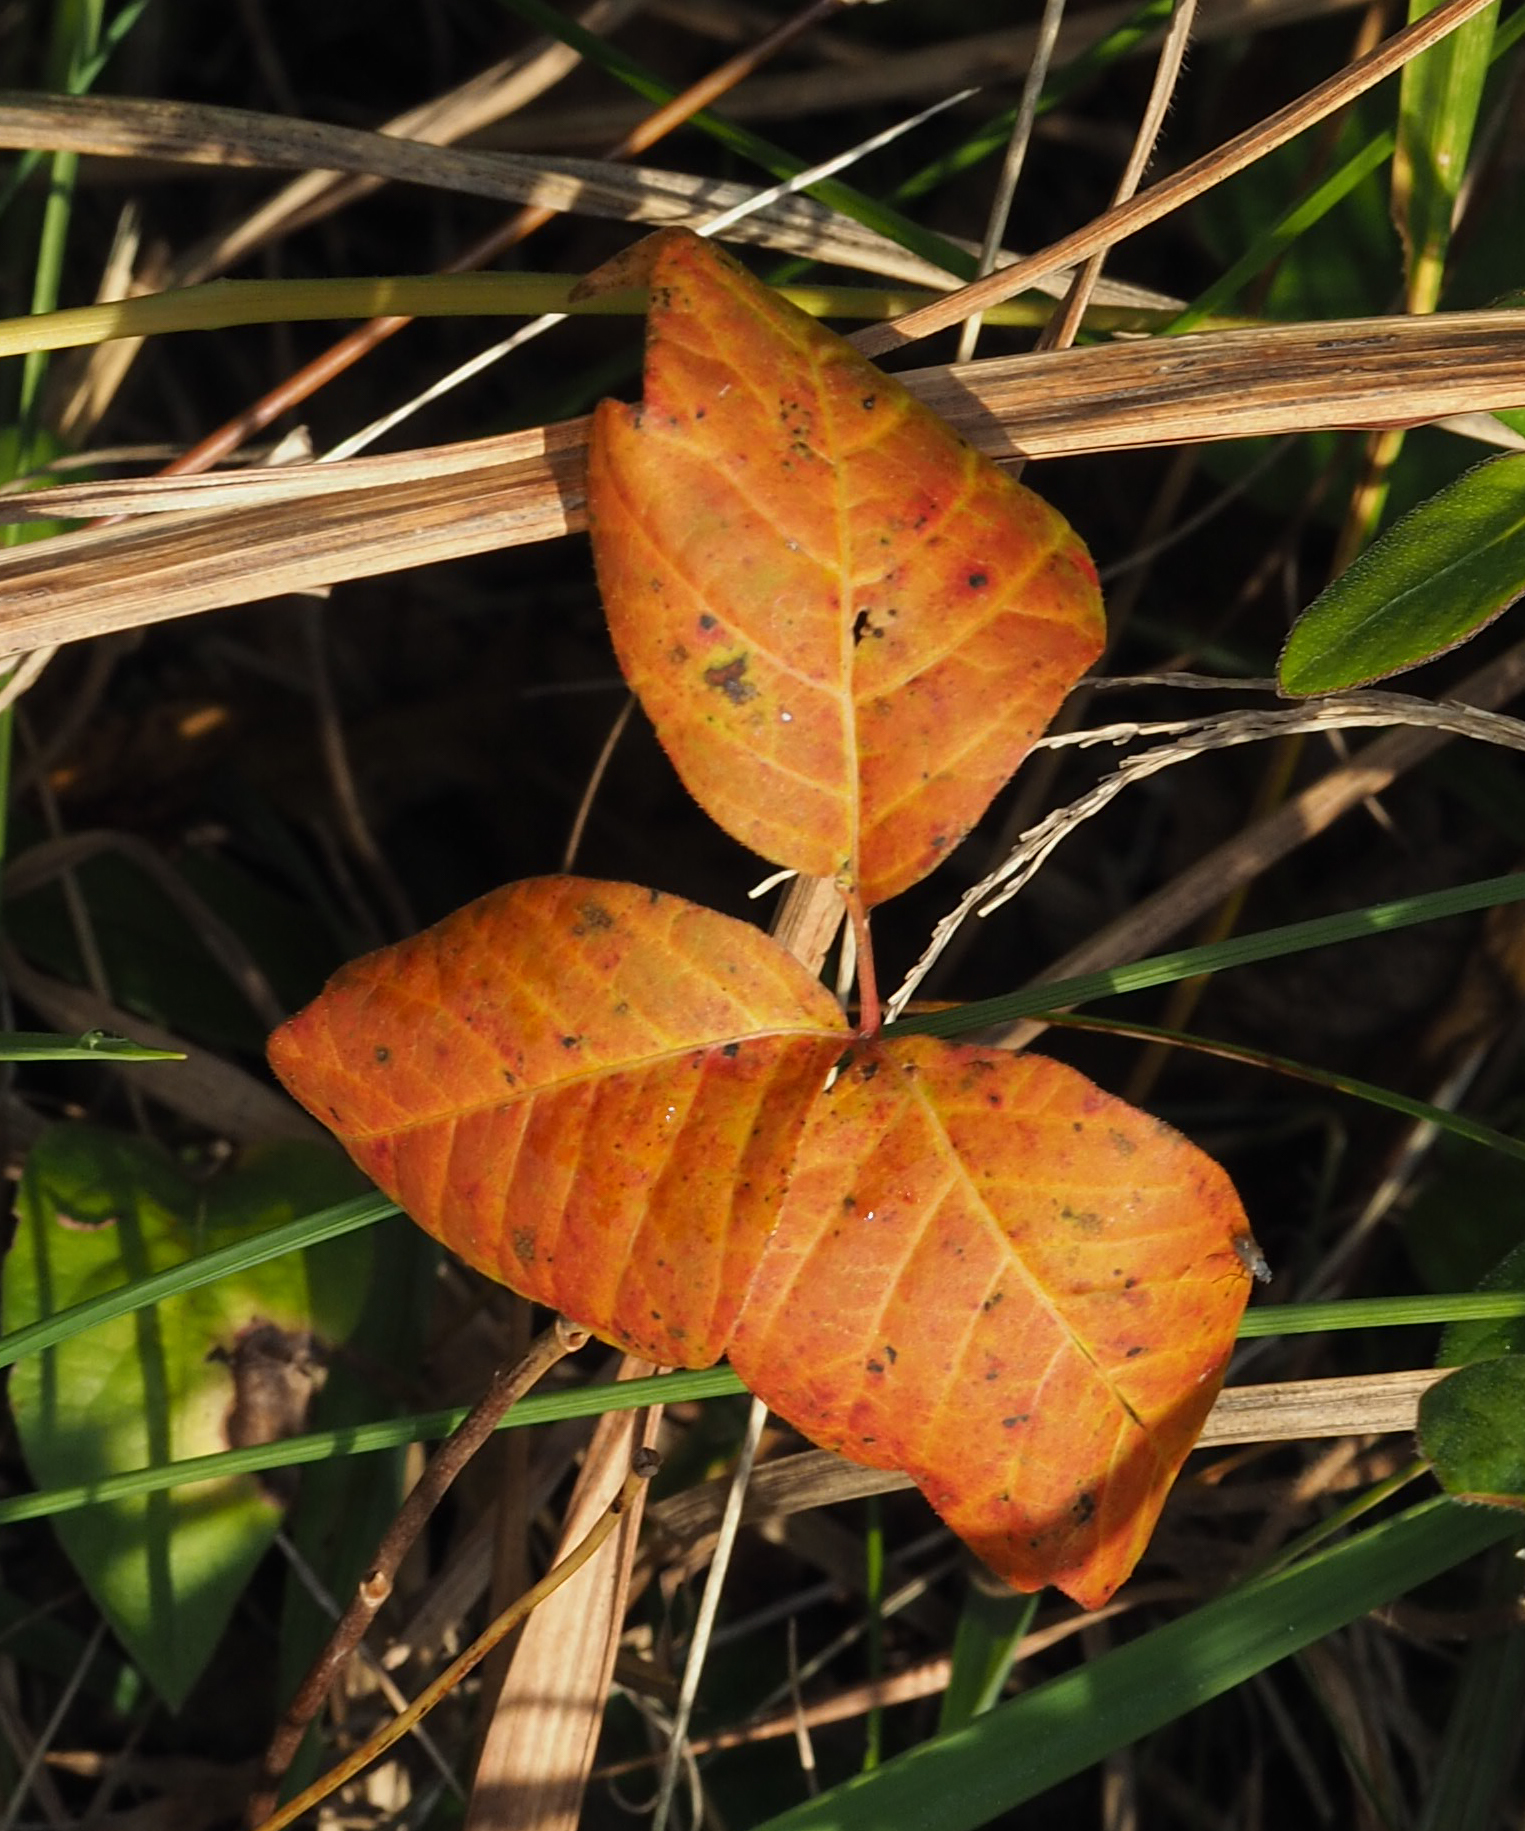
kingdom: Plantae
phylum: Tracheophyta
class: Magnoliopsida
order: Sapindales
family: Anacardiaceae
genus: Toxicodendron
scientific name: Toxicodendron radicans
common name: Poison ivy
